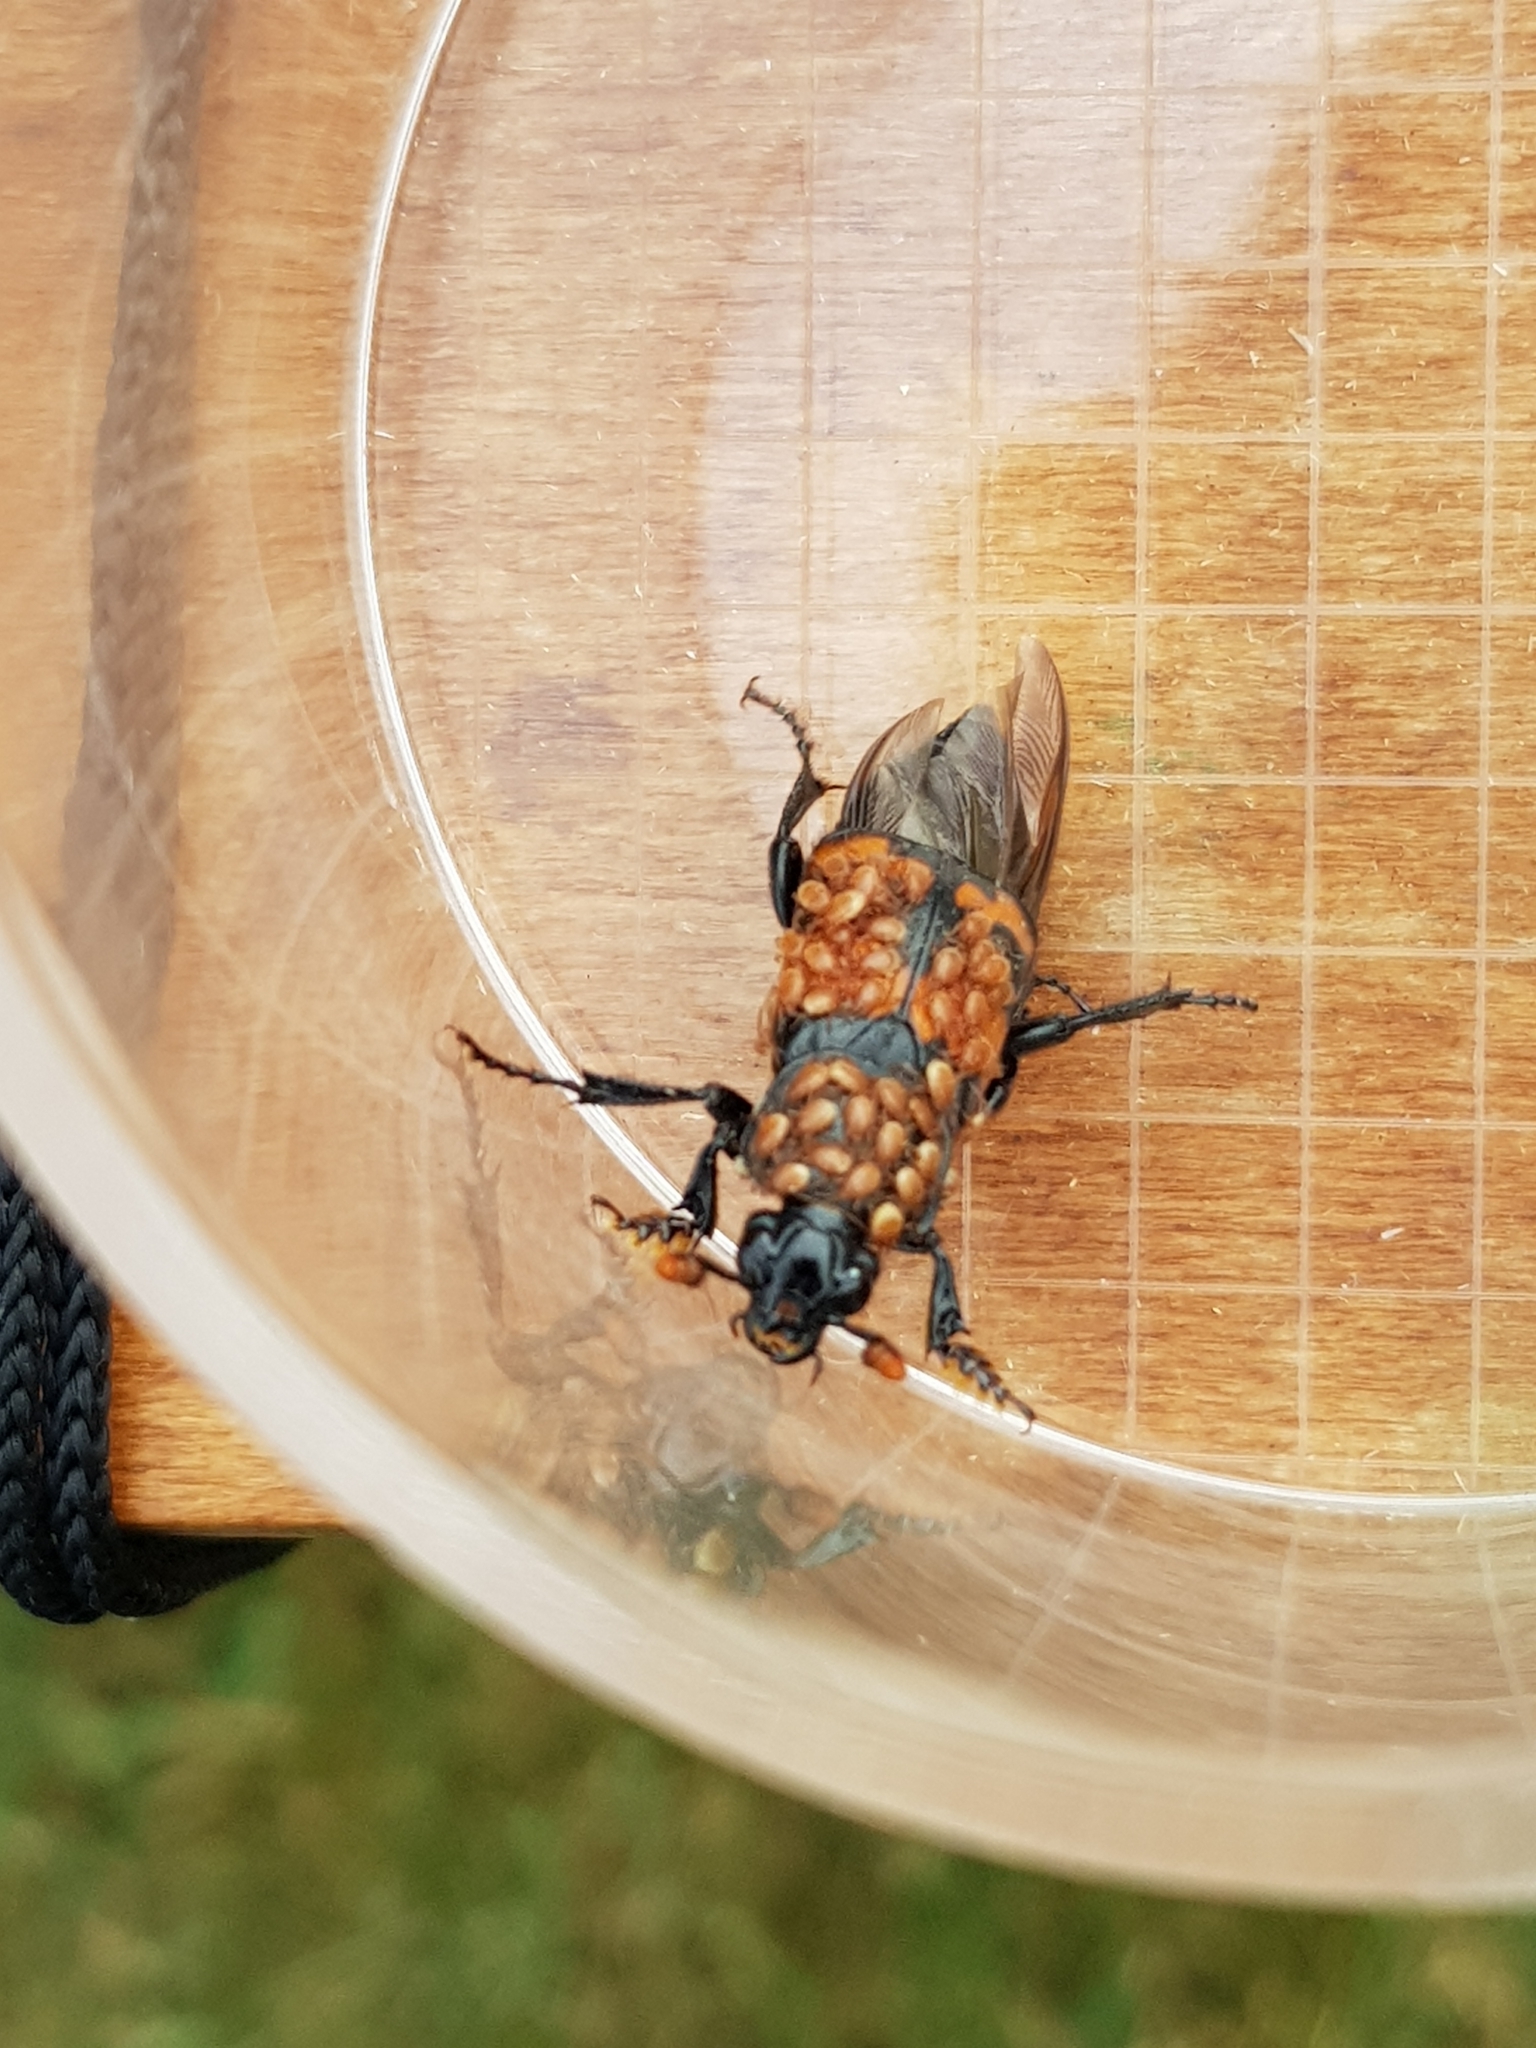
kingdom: Animalia
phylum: Arthropoda
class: Insecta
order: Coleoptera
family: Staphylinidae
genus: Nicrophorus
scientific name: Nicrophorus investigator
